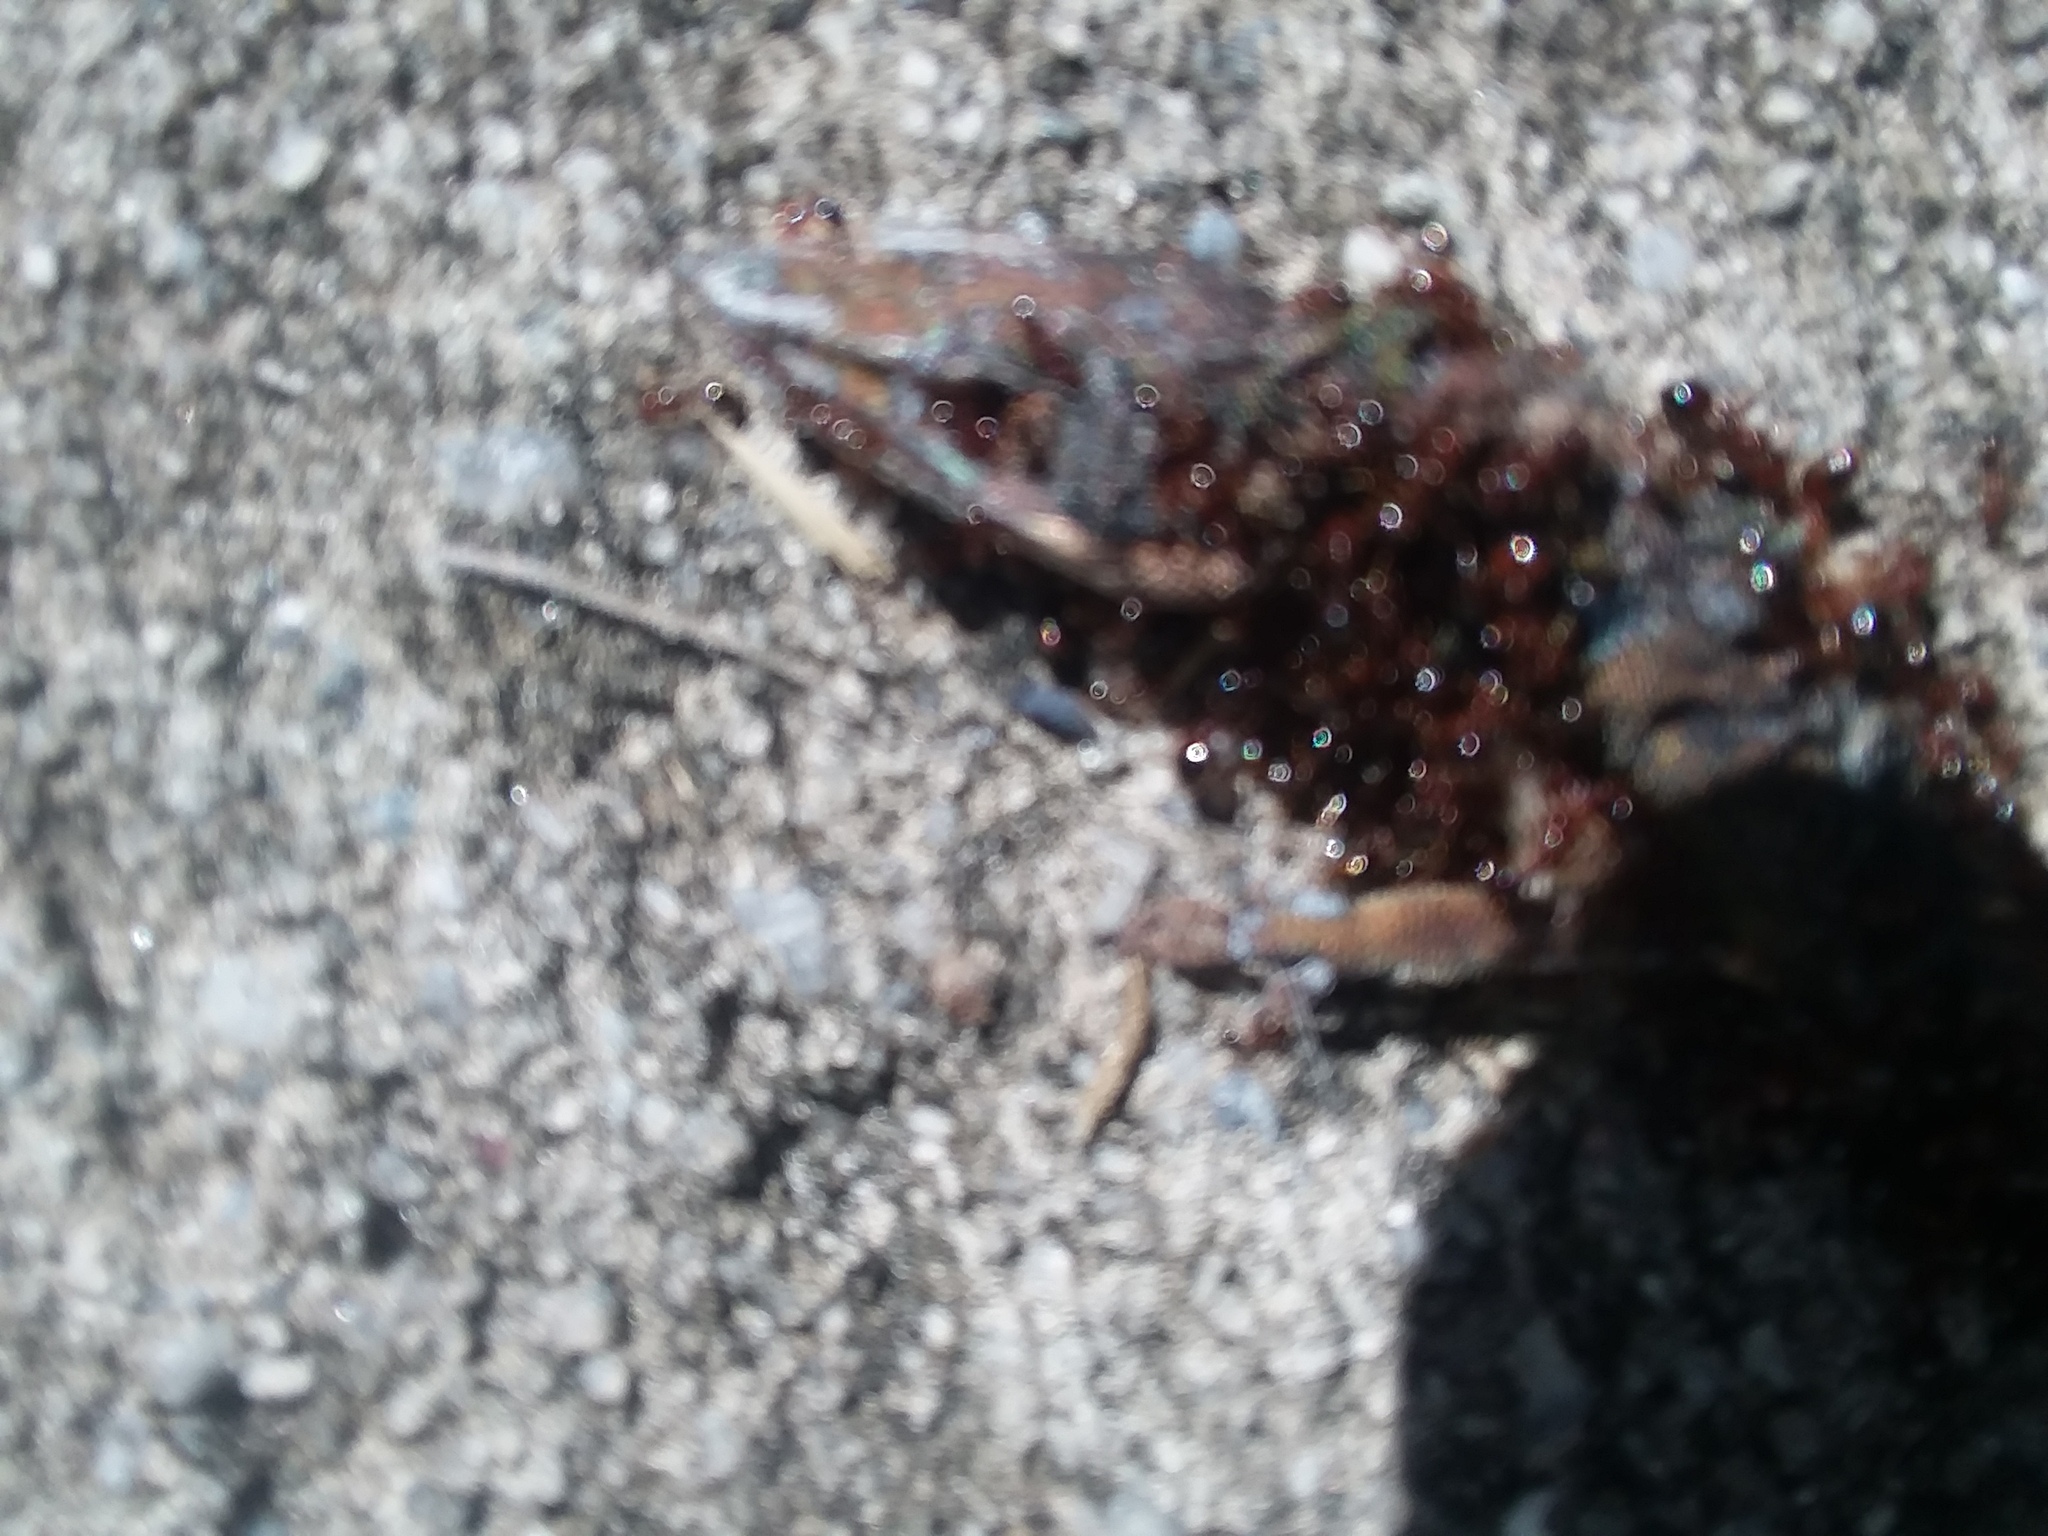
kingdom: Animalia
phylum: Chordata
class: Squamata
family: Dactyloidae
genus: Anolis
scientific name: Anolis carolinensis
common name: Green anole
